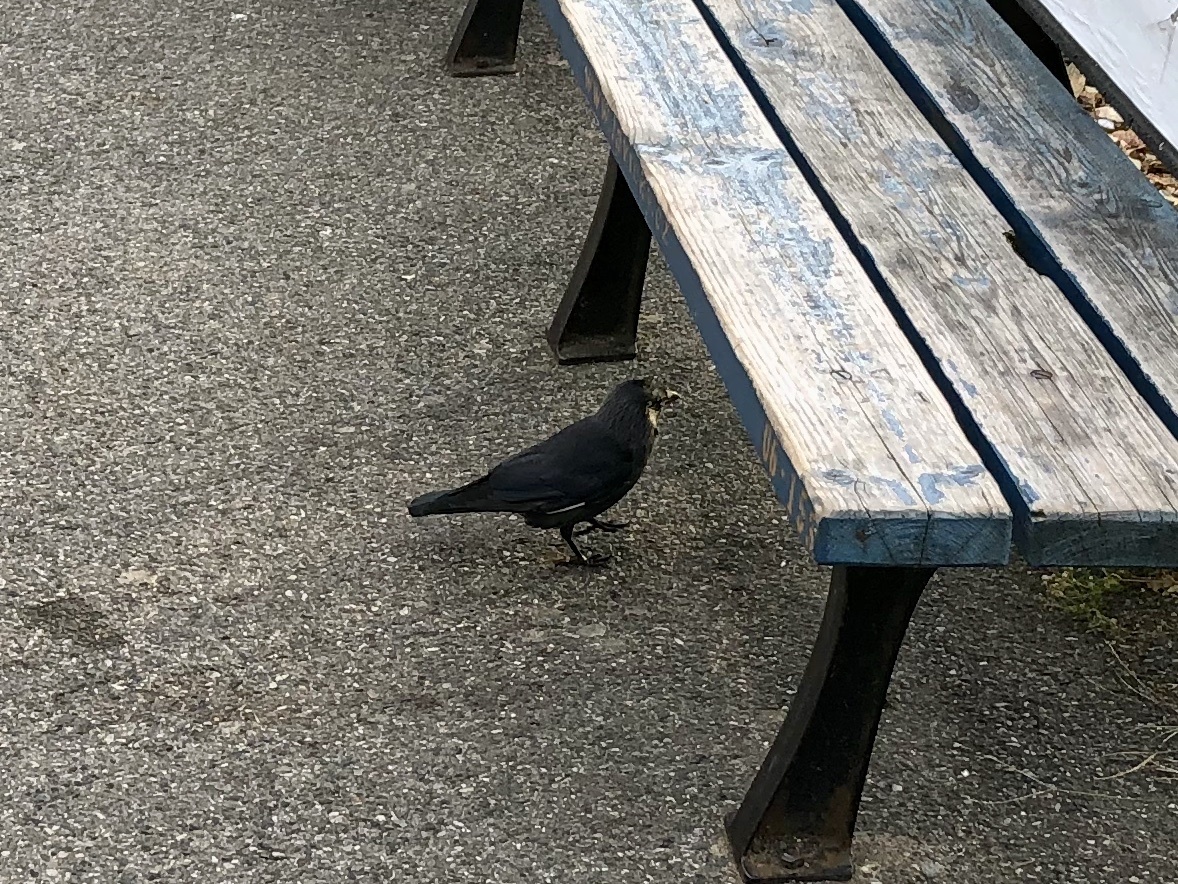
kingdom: Animalia
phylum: Chordata
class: Aves
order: Passeriformes
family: Corvidae
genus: Coloeus
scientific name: Coloeus monedula
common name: Western jackdaw
